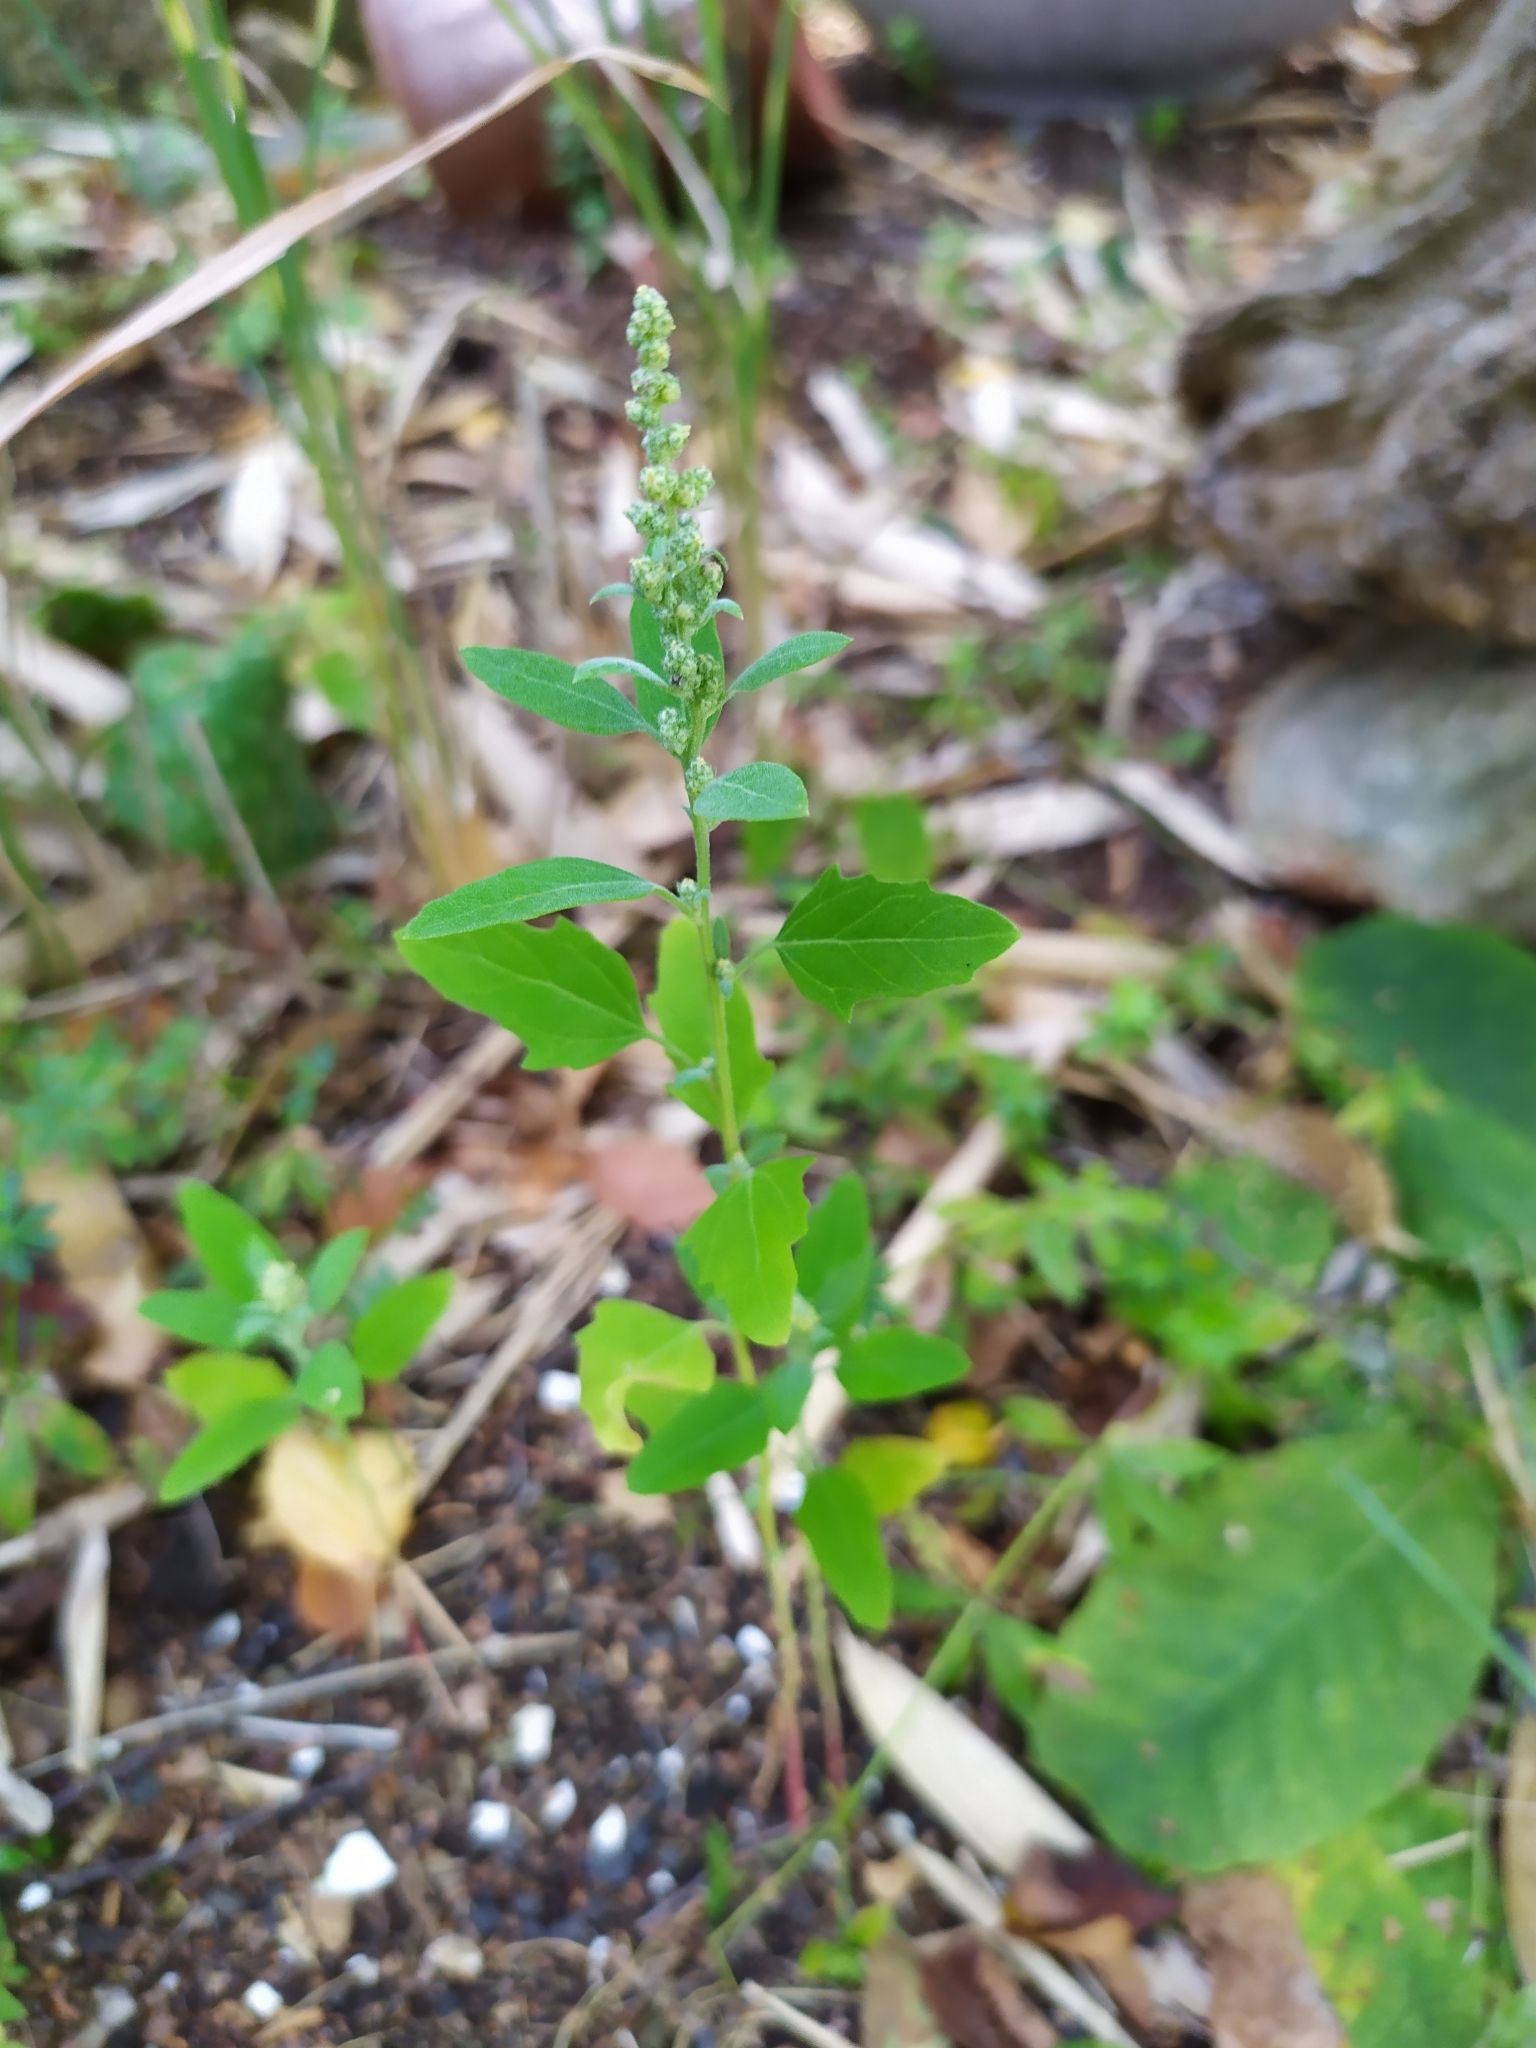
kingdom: Plantae
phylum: Tracheophyta
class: Magnoliopsida
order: Caryophyllales
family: Amaranthaceae
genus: Chenopodium
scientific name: Chenopodium album
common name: Fat-hen
